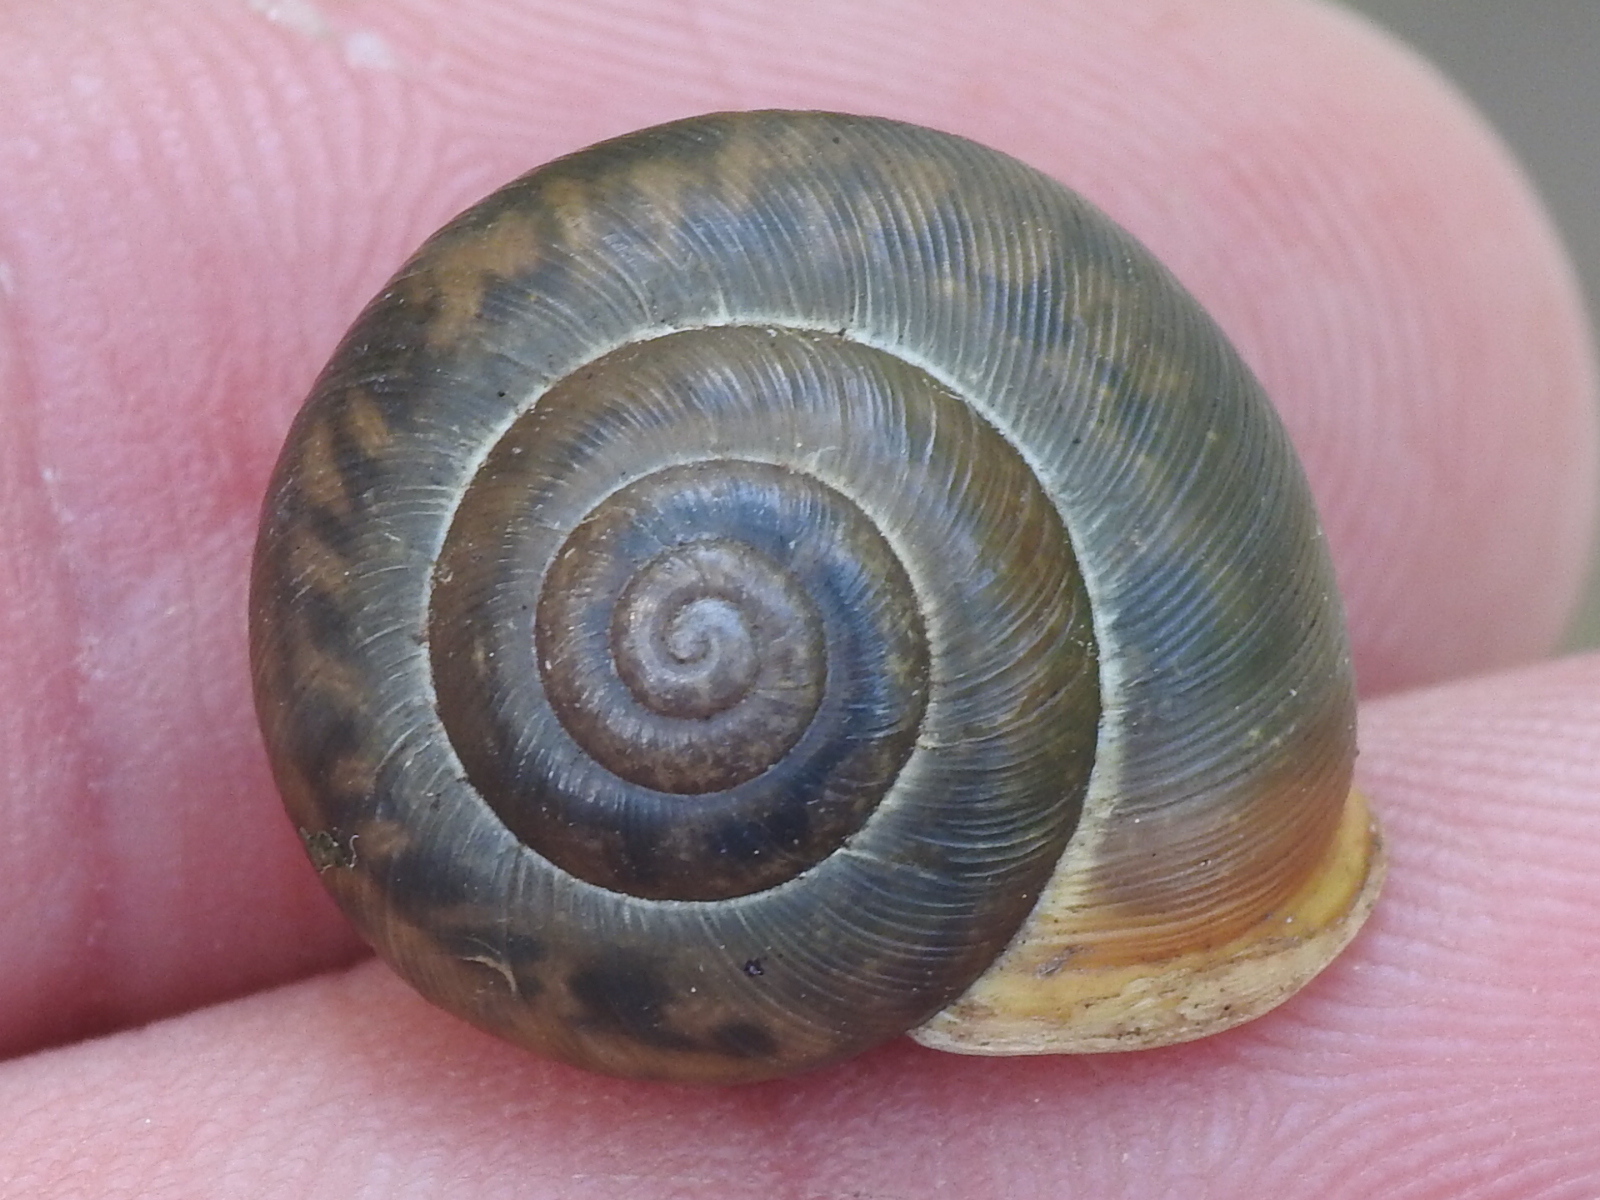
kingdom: Animalia
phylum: Mollusca
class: Gastropoda
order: Stylommatophora
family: Polygyridae
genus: Mesodon
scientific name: Mesodon thyroidus
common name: White-lip globe
